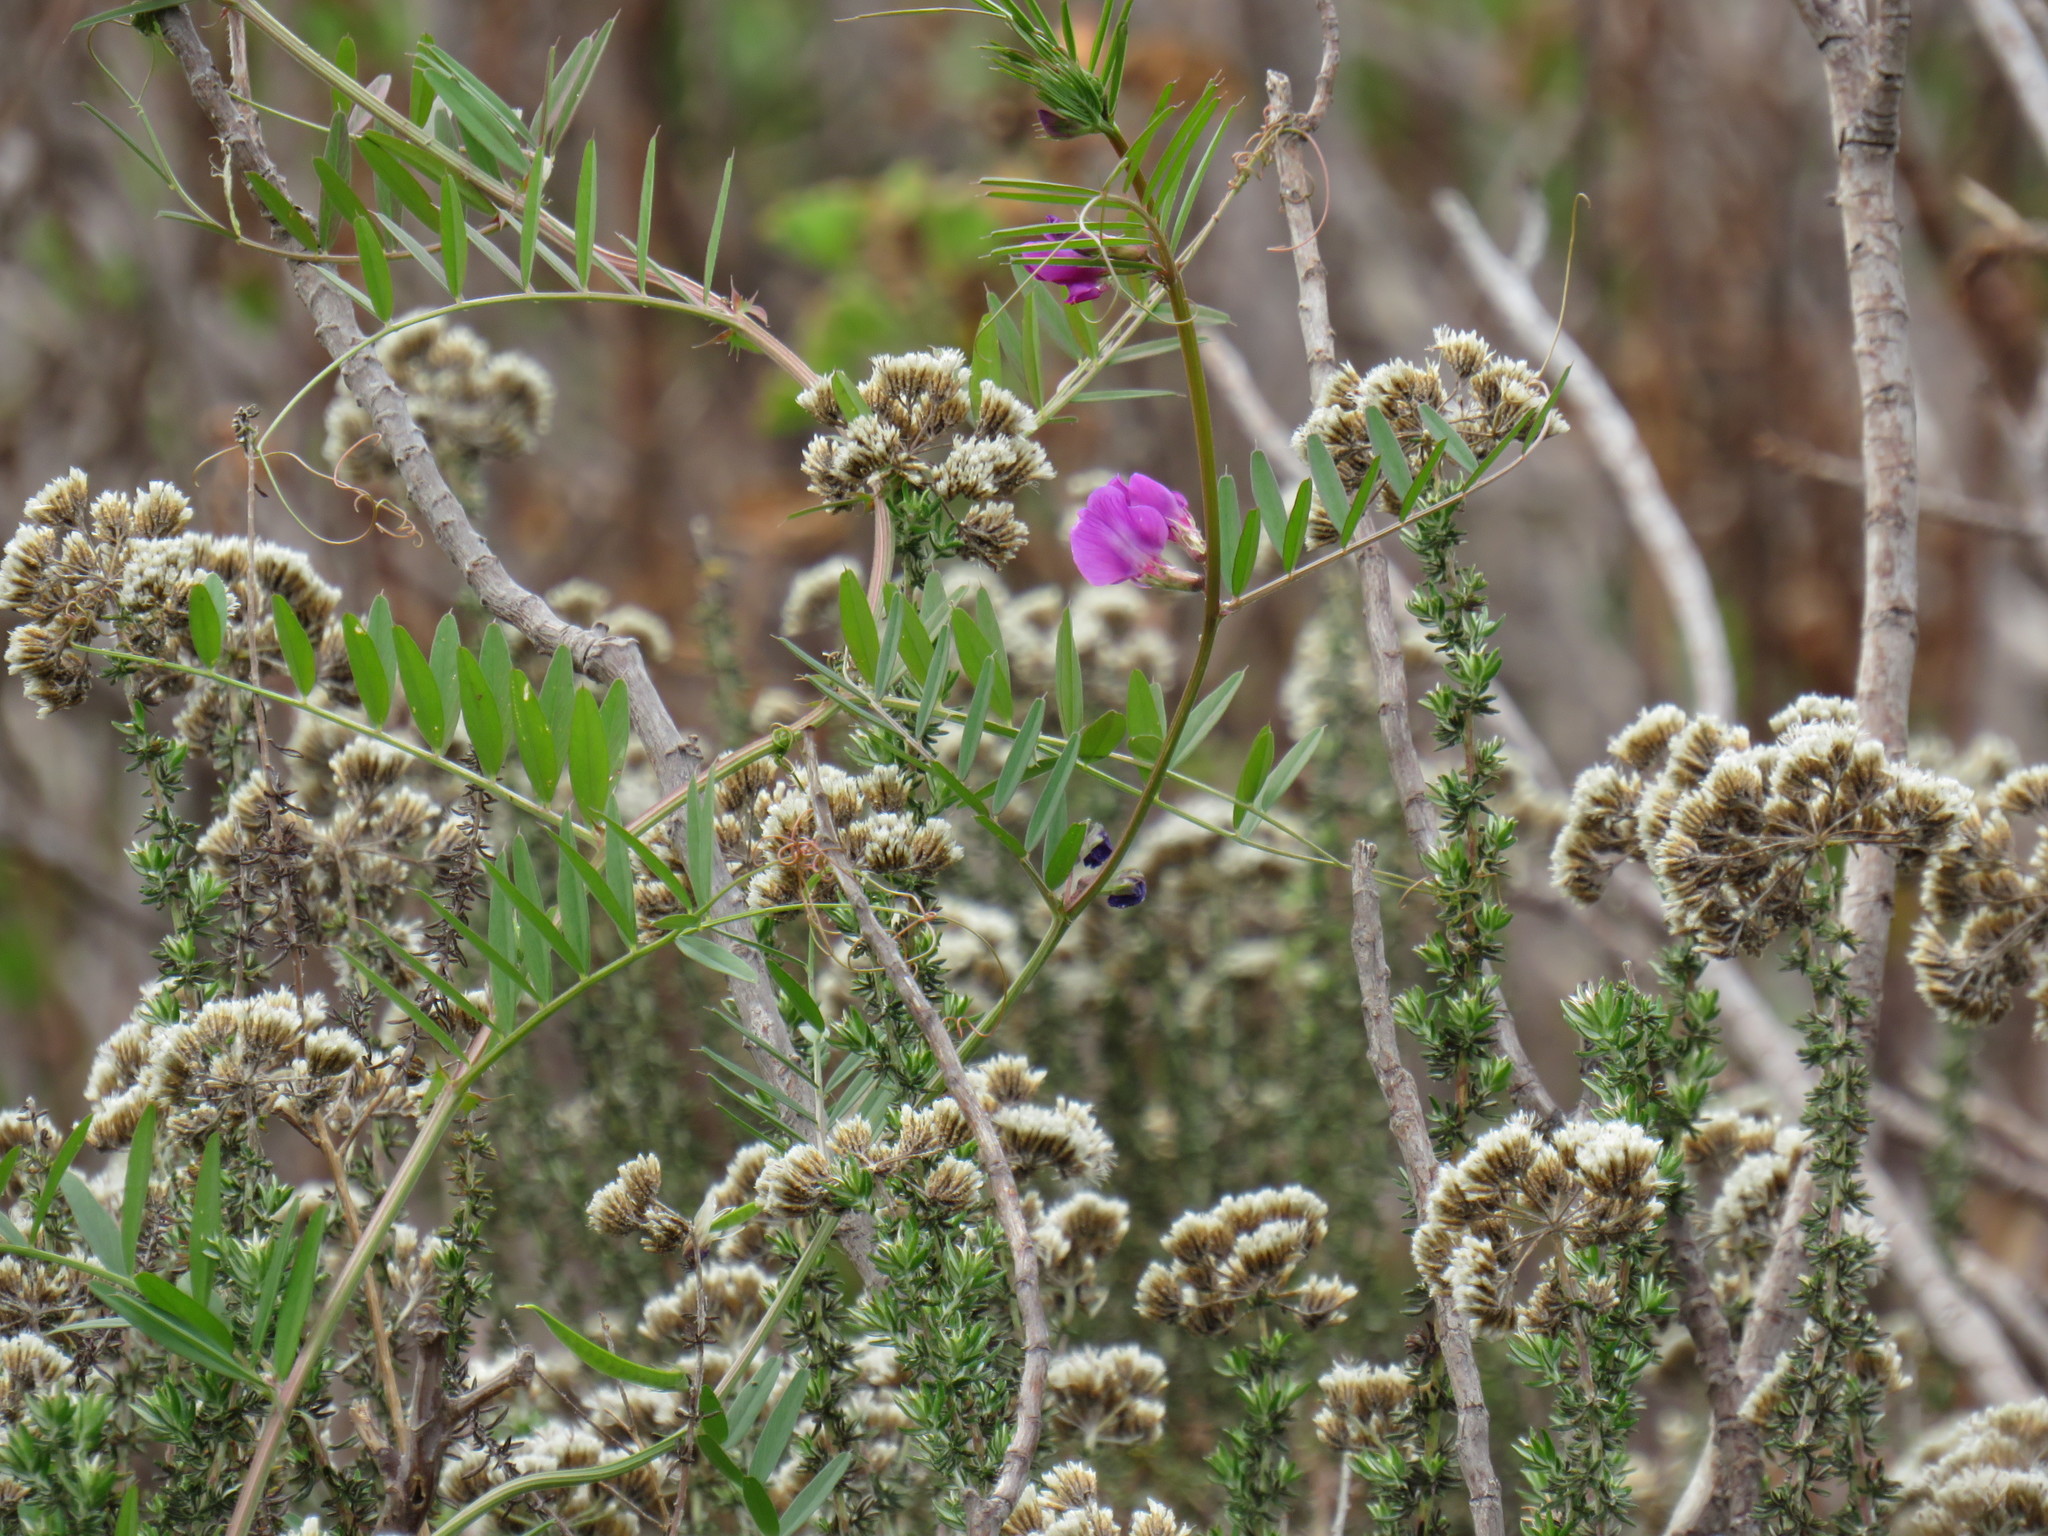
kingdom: Plantae
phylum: Tracheophyta
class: Magnoliopsida
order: Fabales
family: Fabaceae
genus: Vicia
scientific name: Vicia sativa
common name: Garden vetch
